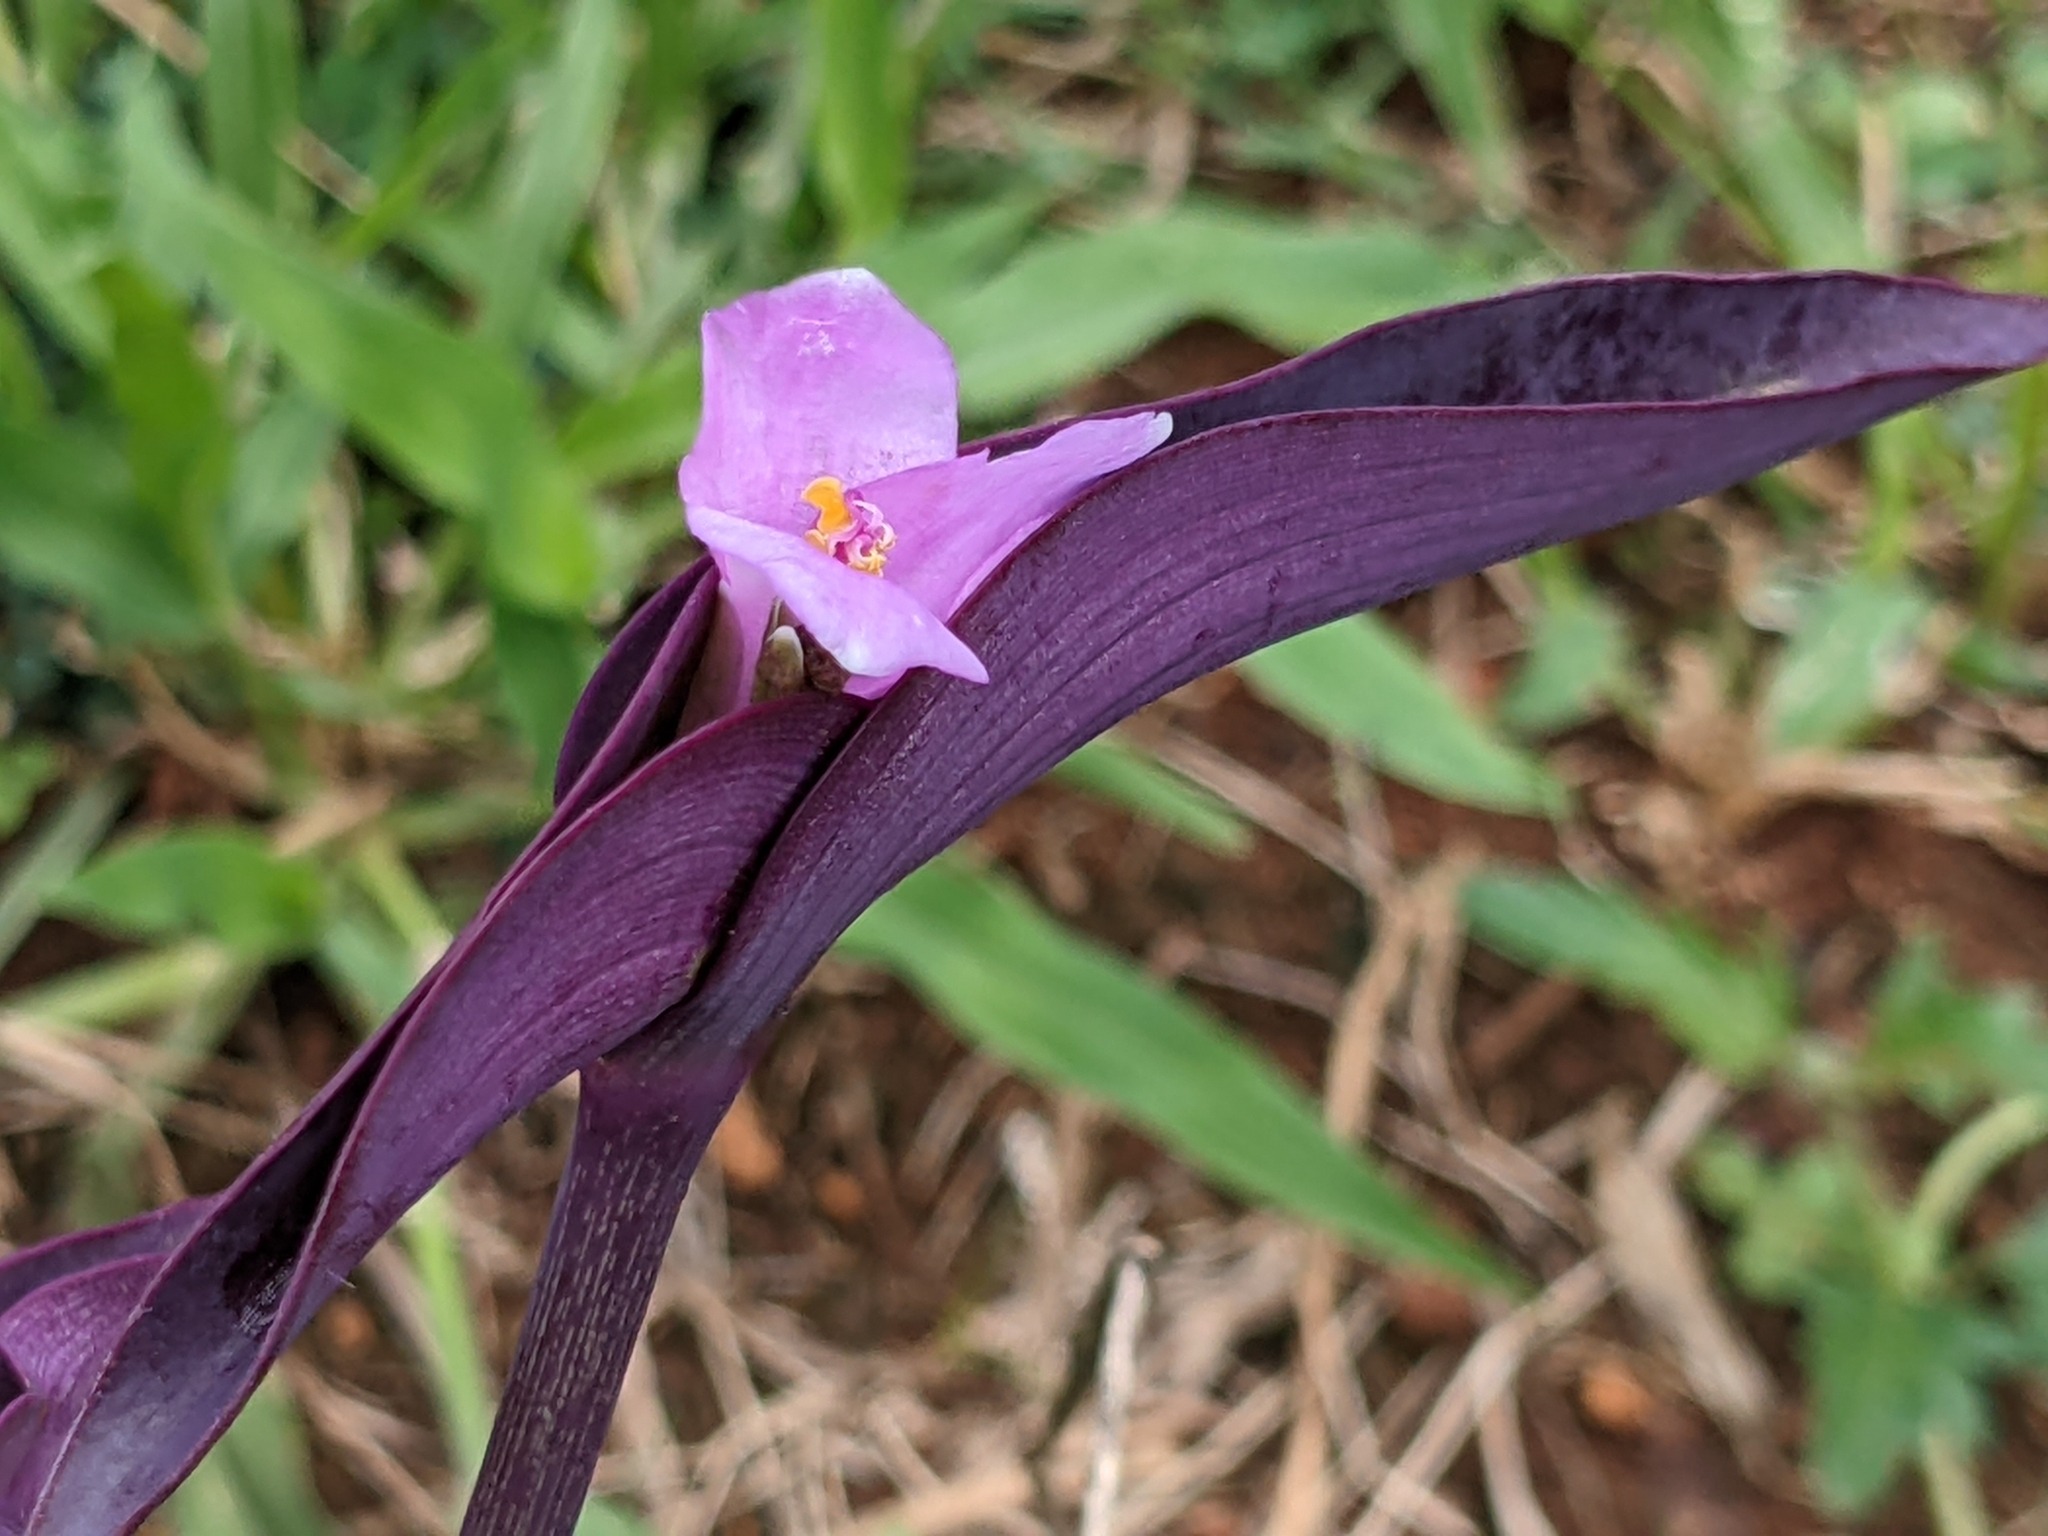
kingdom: Plantae
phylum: Tracheophyta
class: Liliopsida
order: Commelinales
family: Commelinaceae
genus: Tradescantia
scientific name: Tradescantia pallida
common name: Purpleheart
